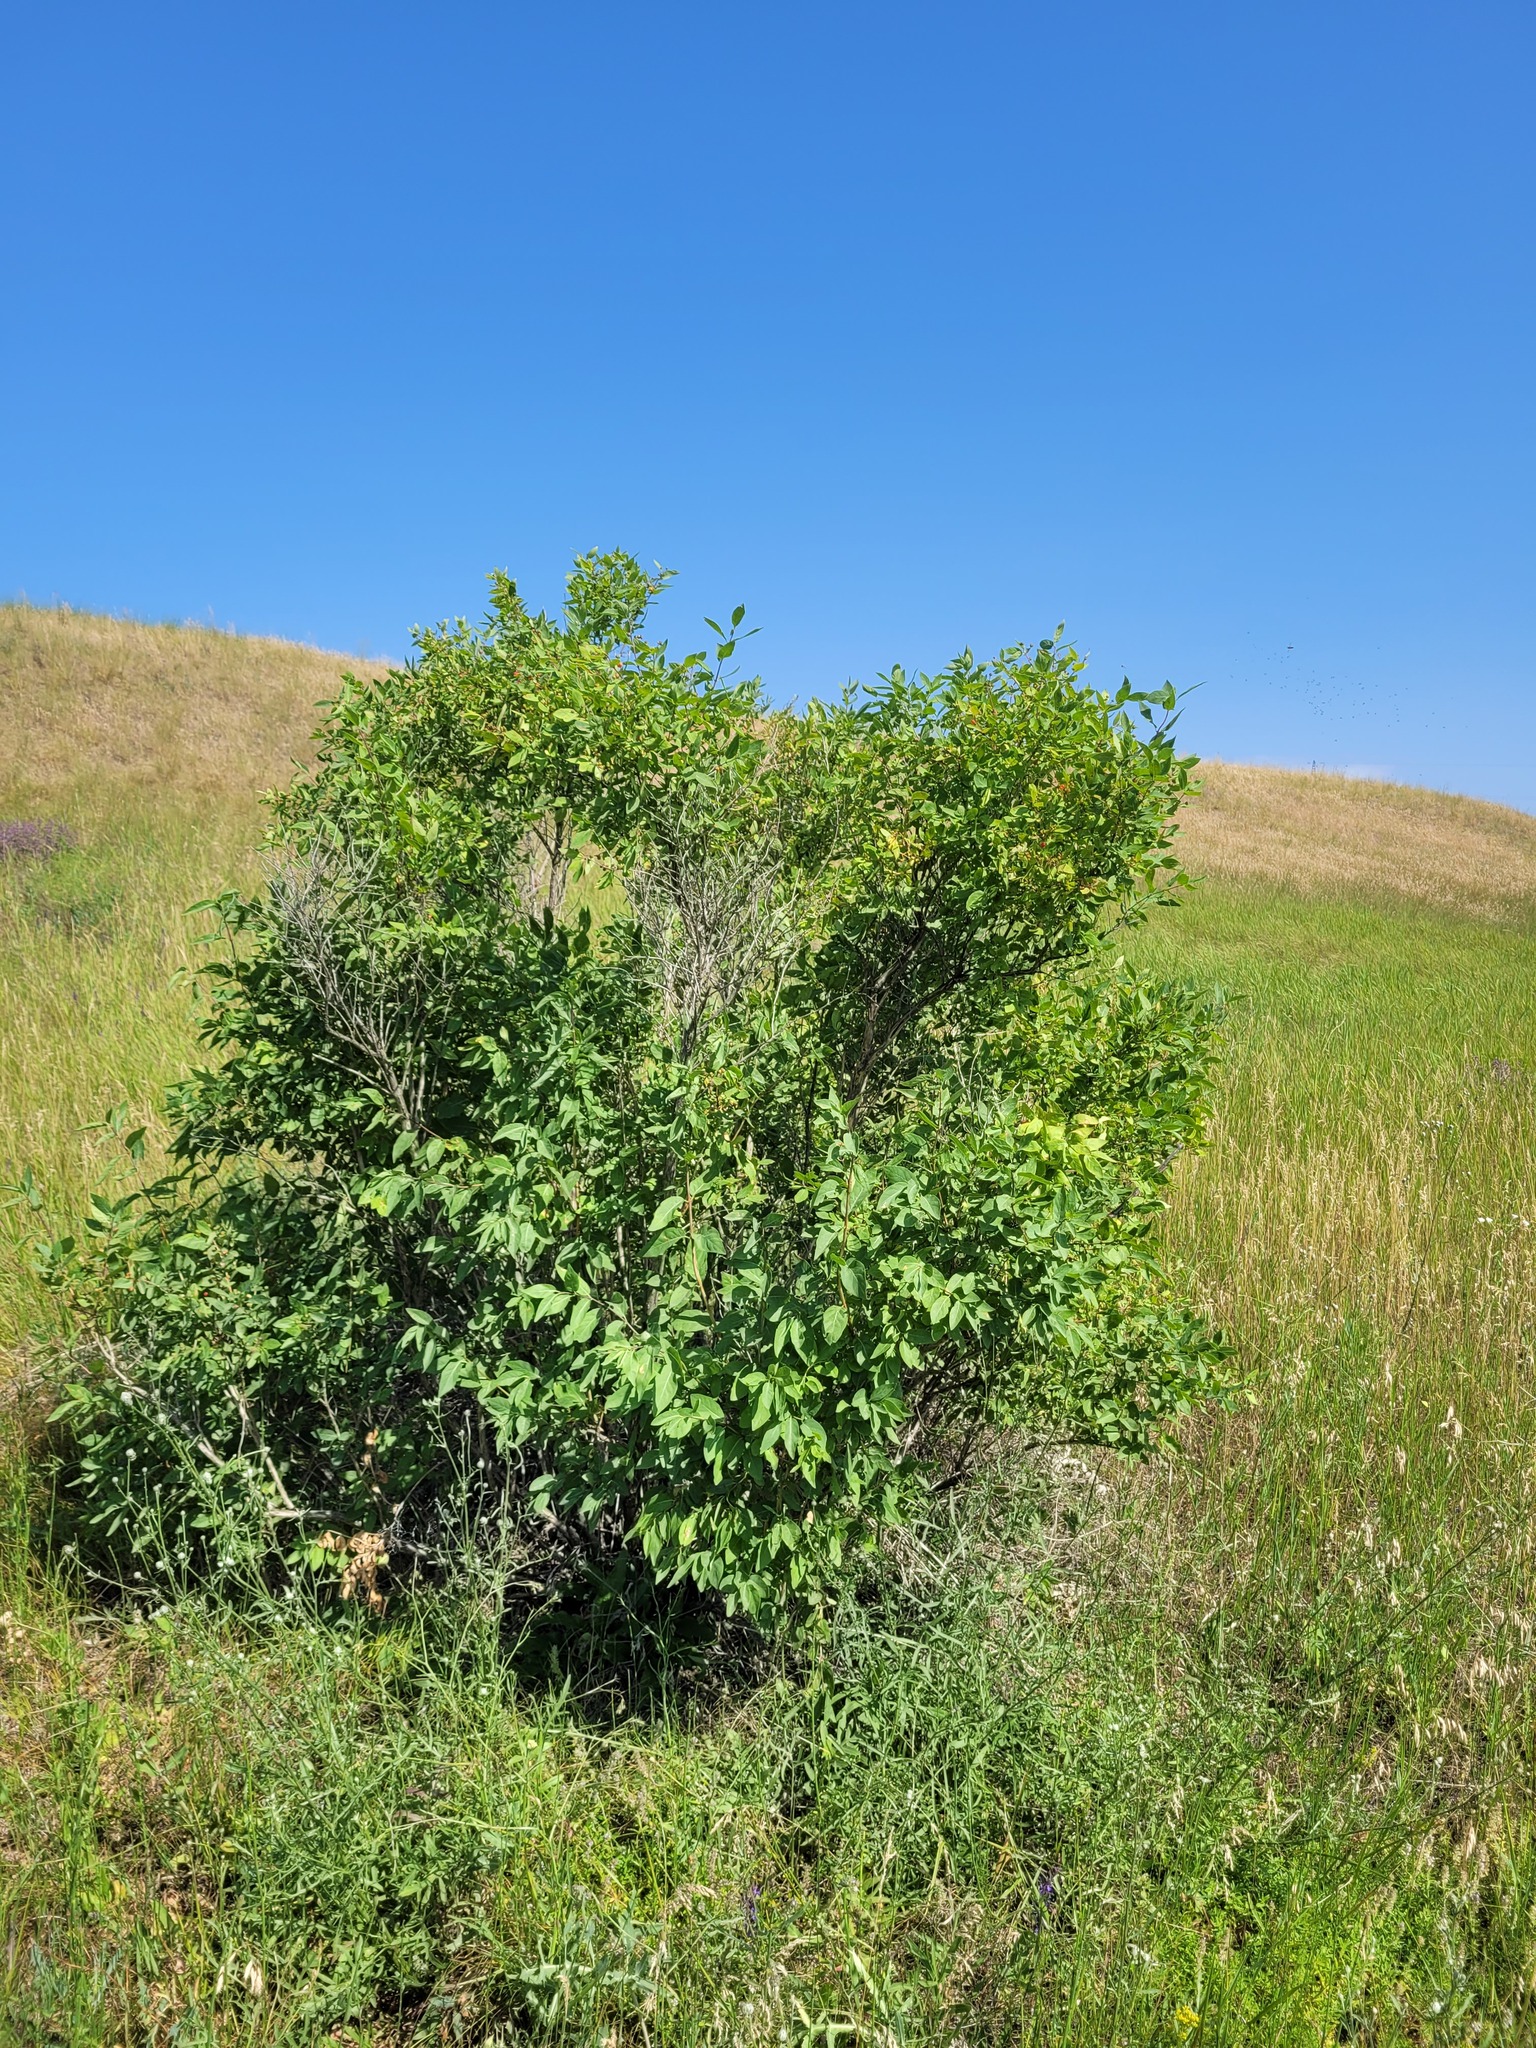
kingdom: Plantae
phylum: Tracheophyta
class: Magnoliopsida
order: Dipsacales
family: Caprifoliaceae
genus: Lonicera
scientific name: Lonicera tatarica
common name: Tatarian honeysuckle
